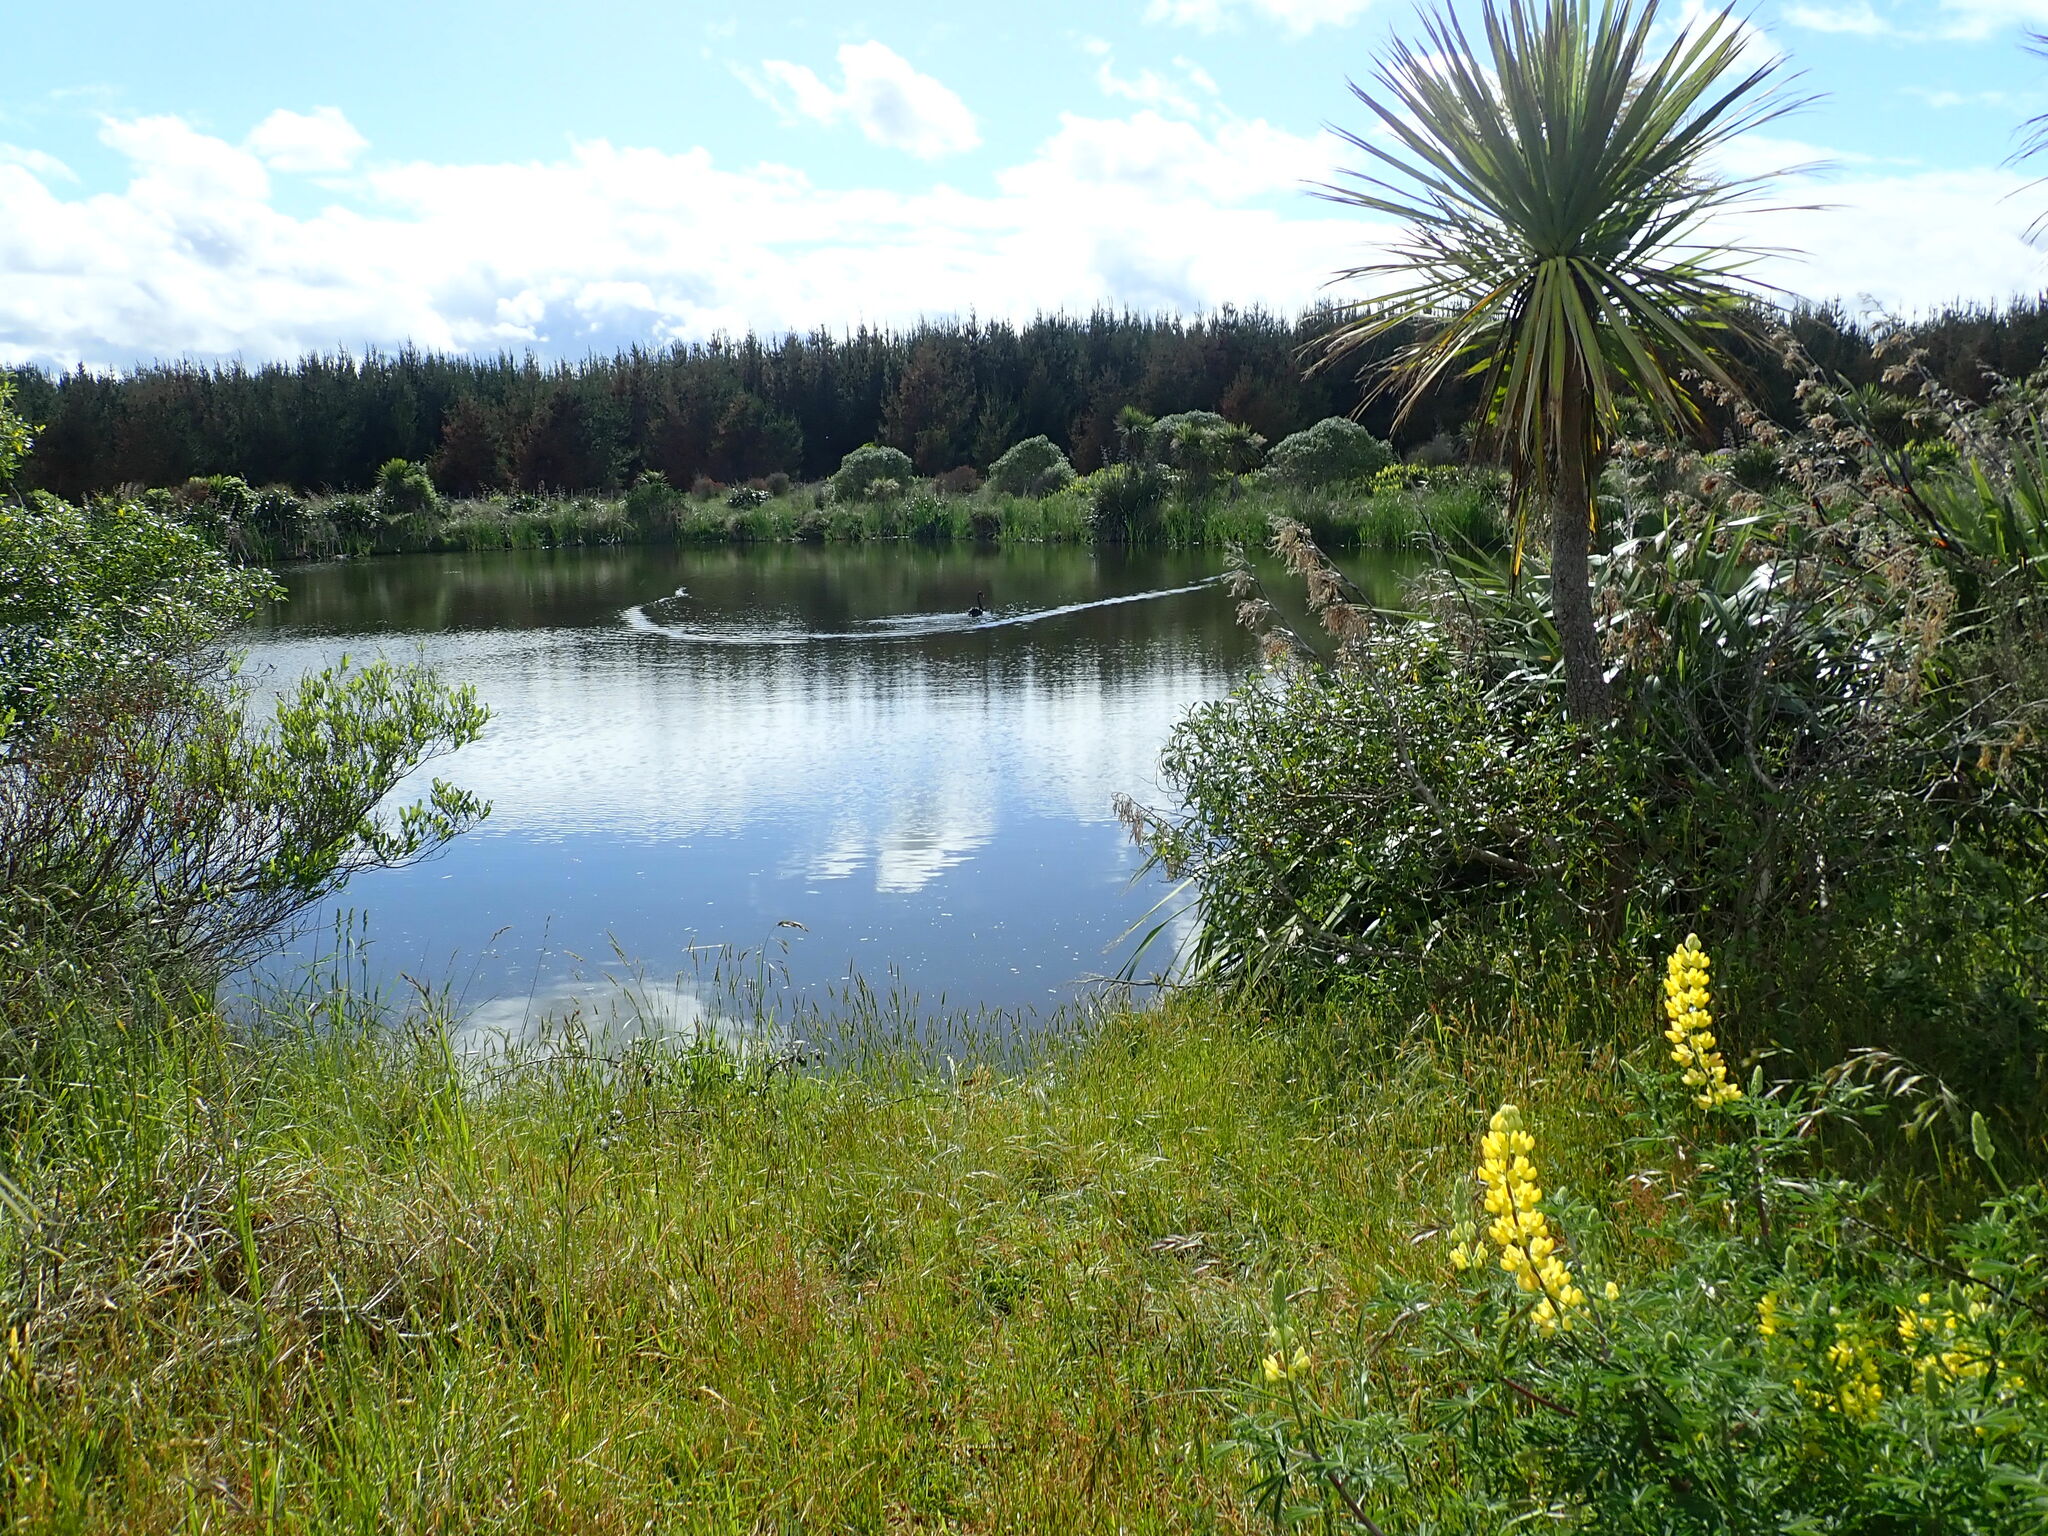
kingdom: Animalia
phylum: Chordata
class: Aves
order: Anseriformes
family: Anatidae
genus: Cygnus
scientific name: Cygnus atratus
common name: Black swan
